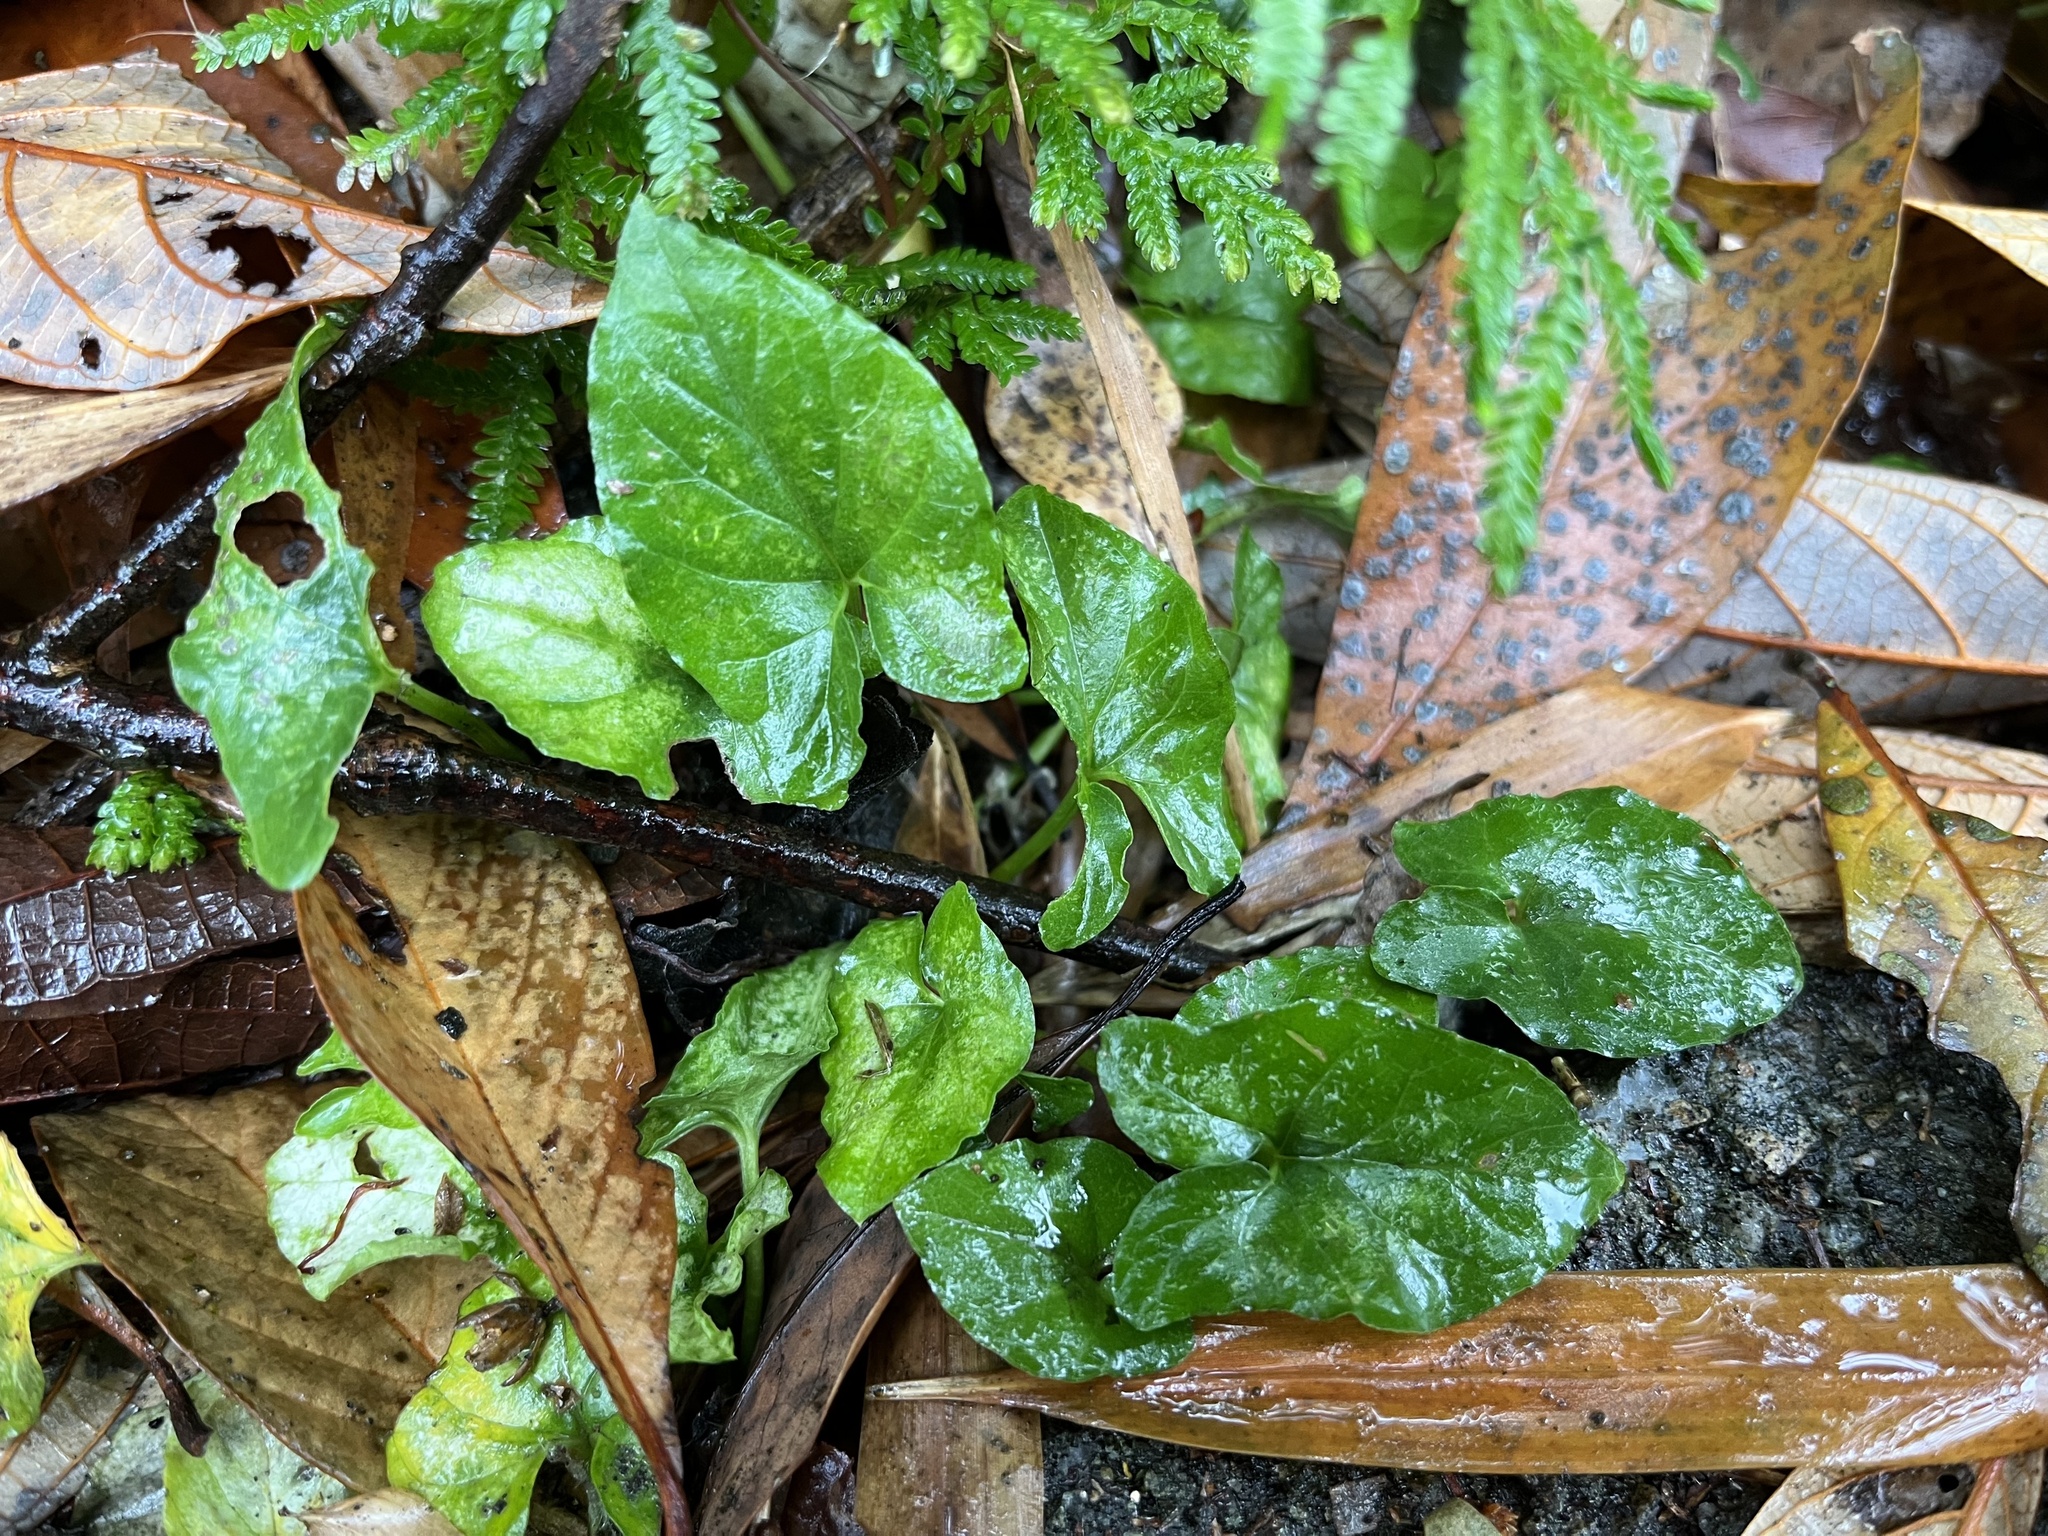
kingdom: Plantae
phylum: Tracheophyta
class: Liliopsida
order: Alismatales
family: Araceae
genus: Typhonium
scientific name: Typhonium blumei
